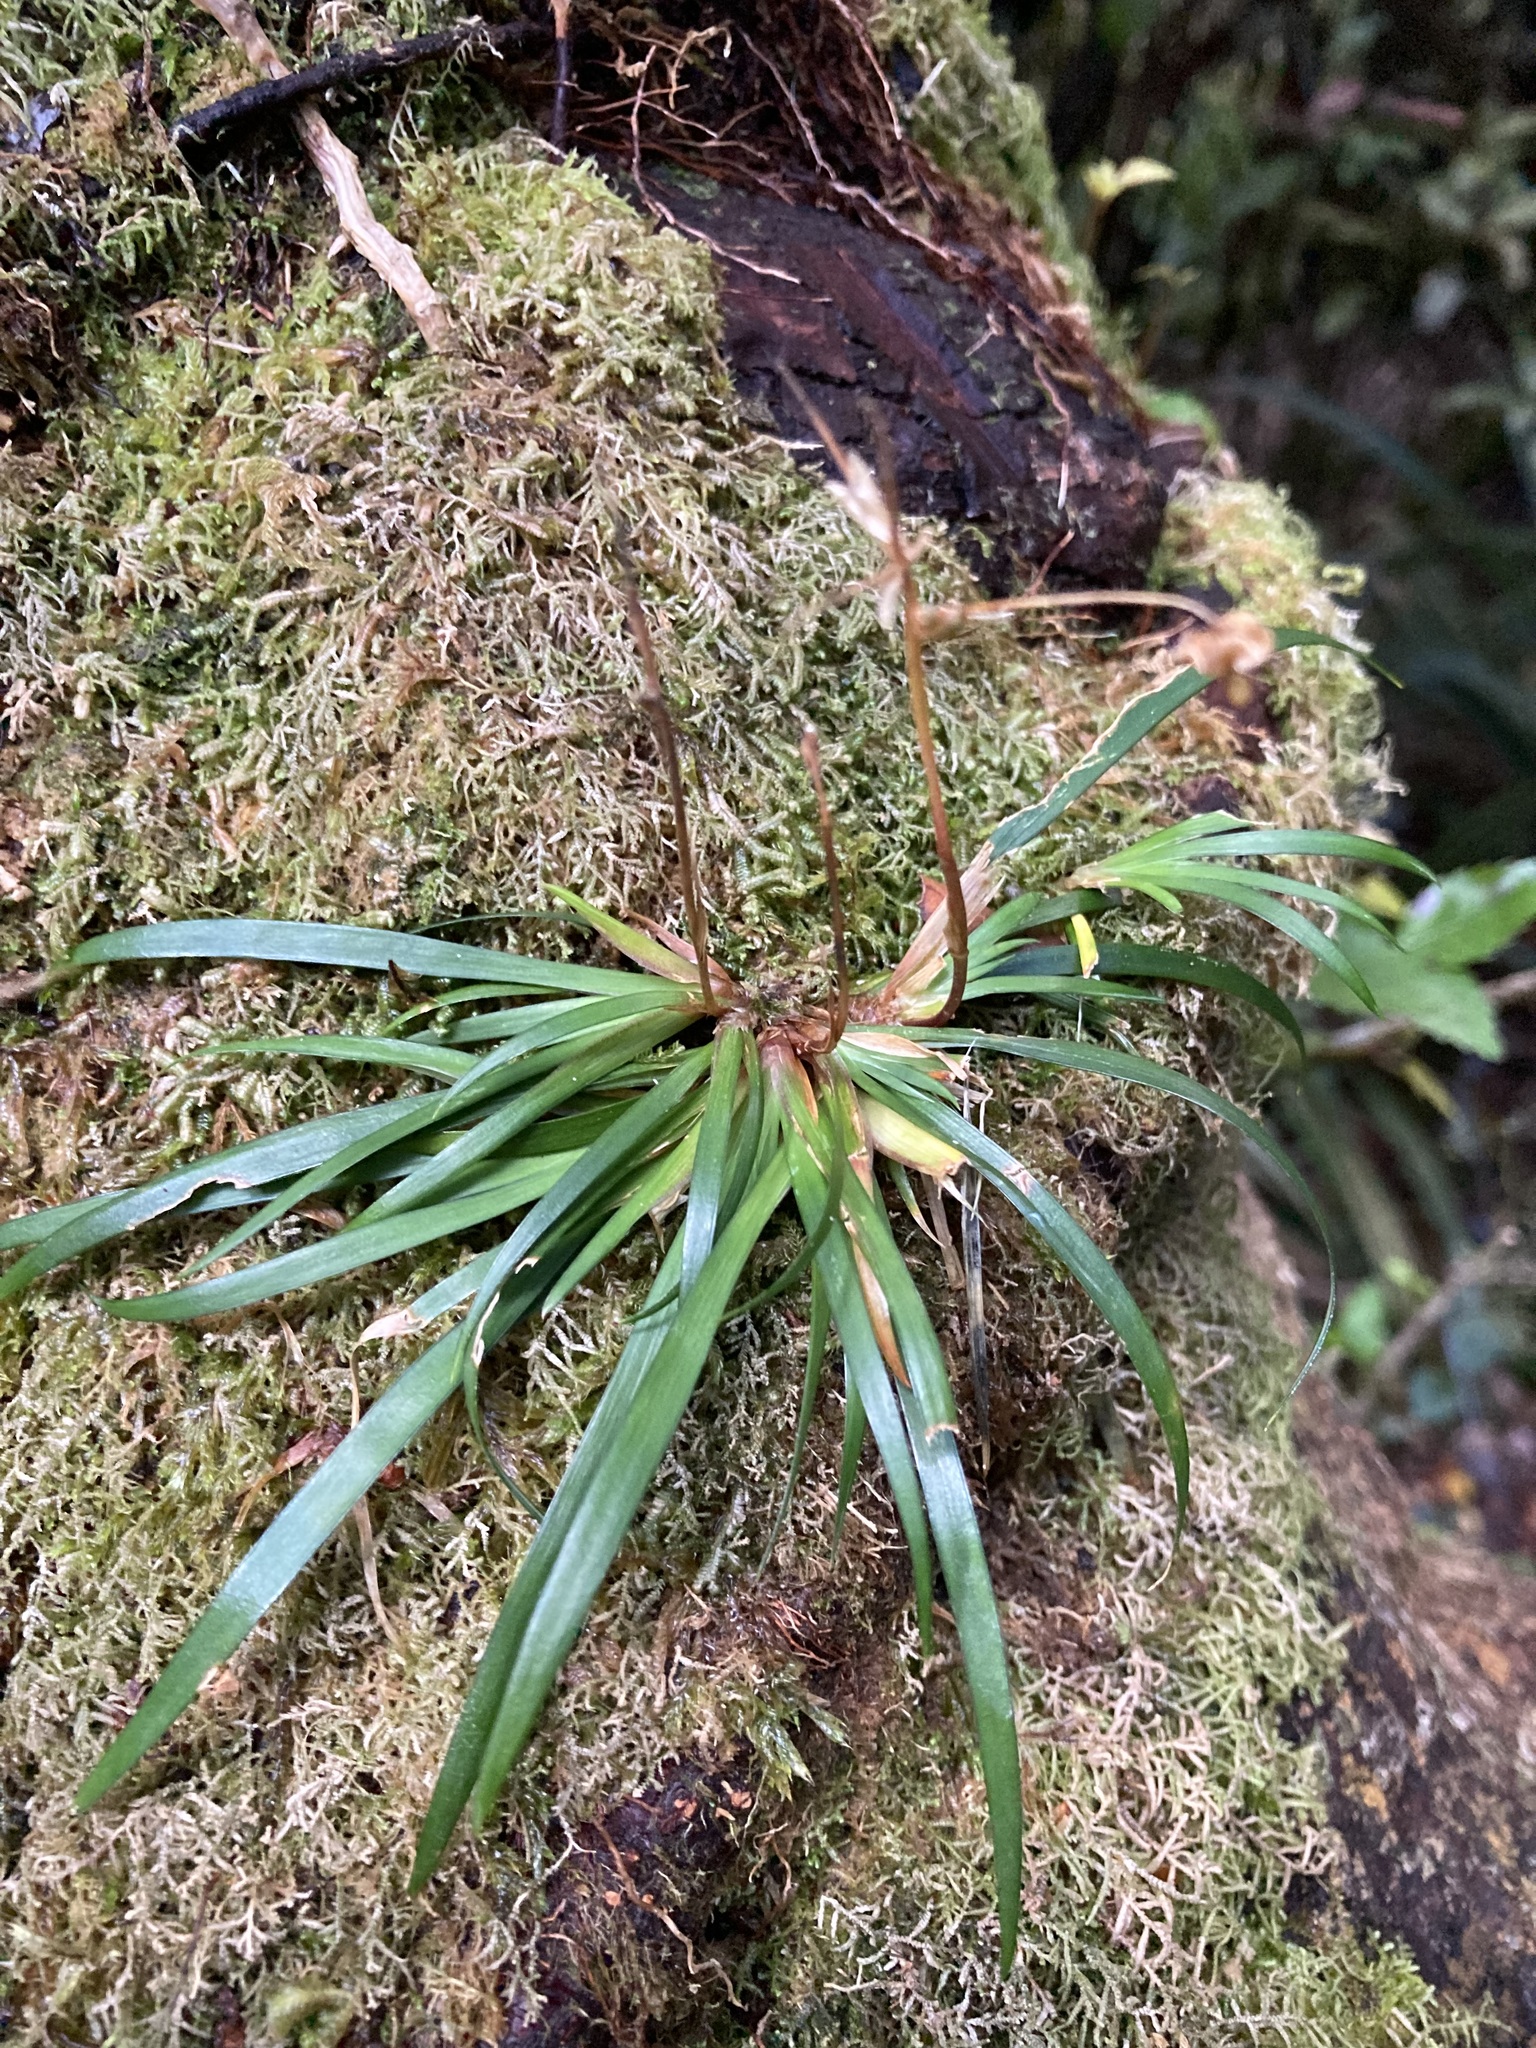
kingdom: Plantae
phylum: Tracheophyta
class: Liliopsida
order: Asparagales
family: Iridaceae
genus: Libertia
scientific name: Libertia micrantha
